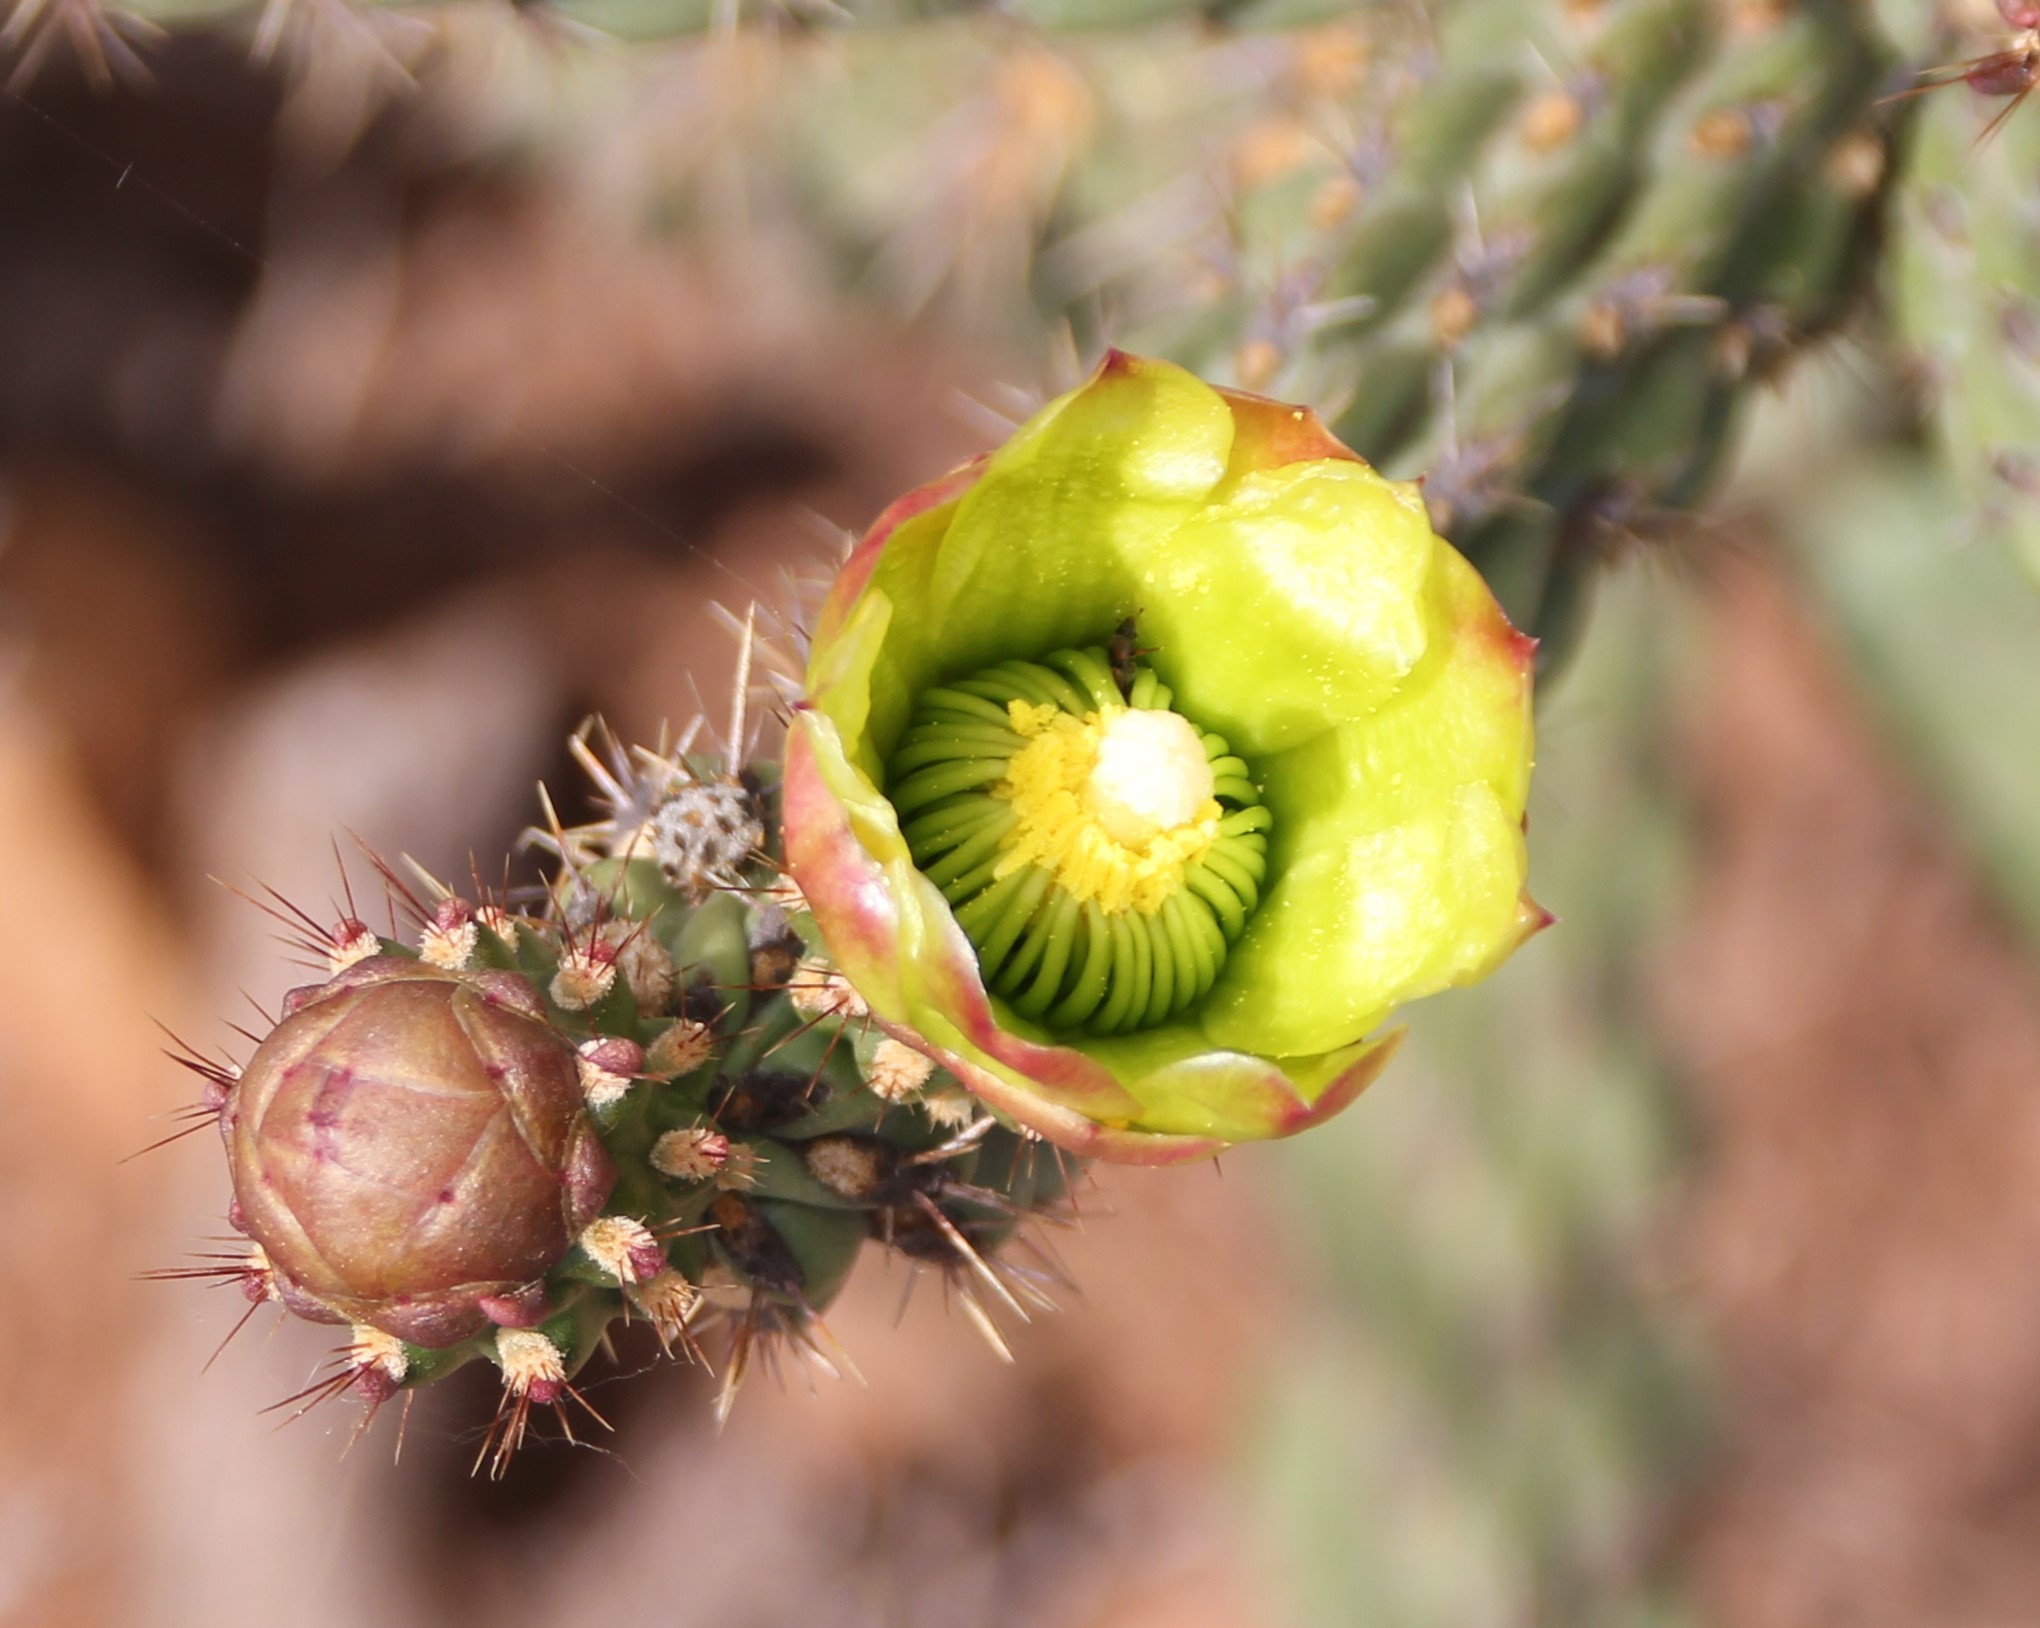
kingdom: Plantae
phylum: Tracheophyta
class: Magnoliopsida
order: Caryophyllales
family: Cactaceae
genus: Cylindropuntia
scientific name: Cylindropuntia californica
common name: Snake cholla
